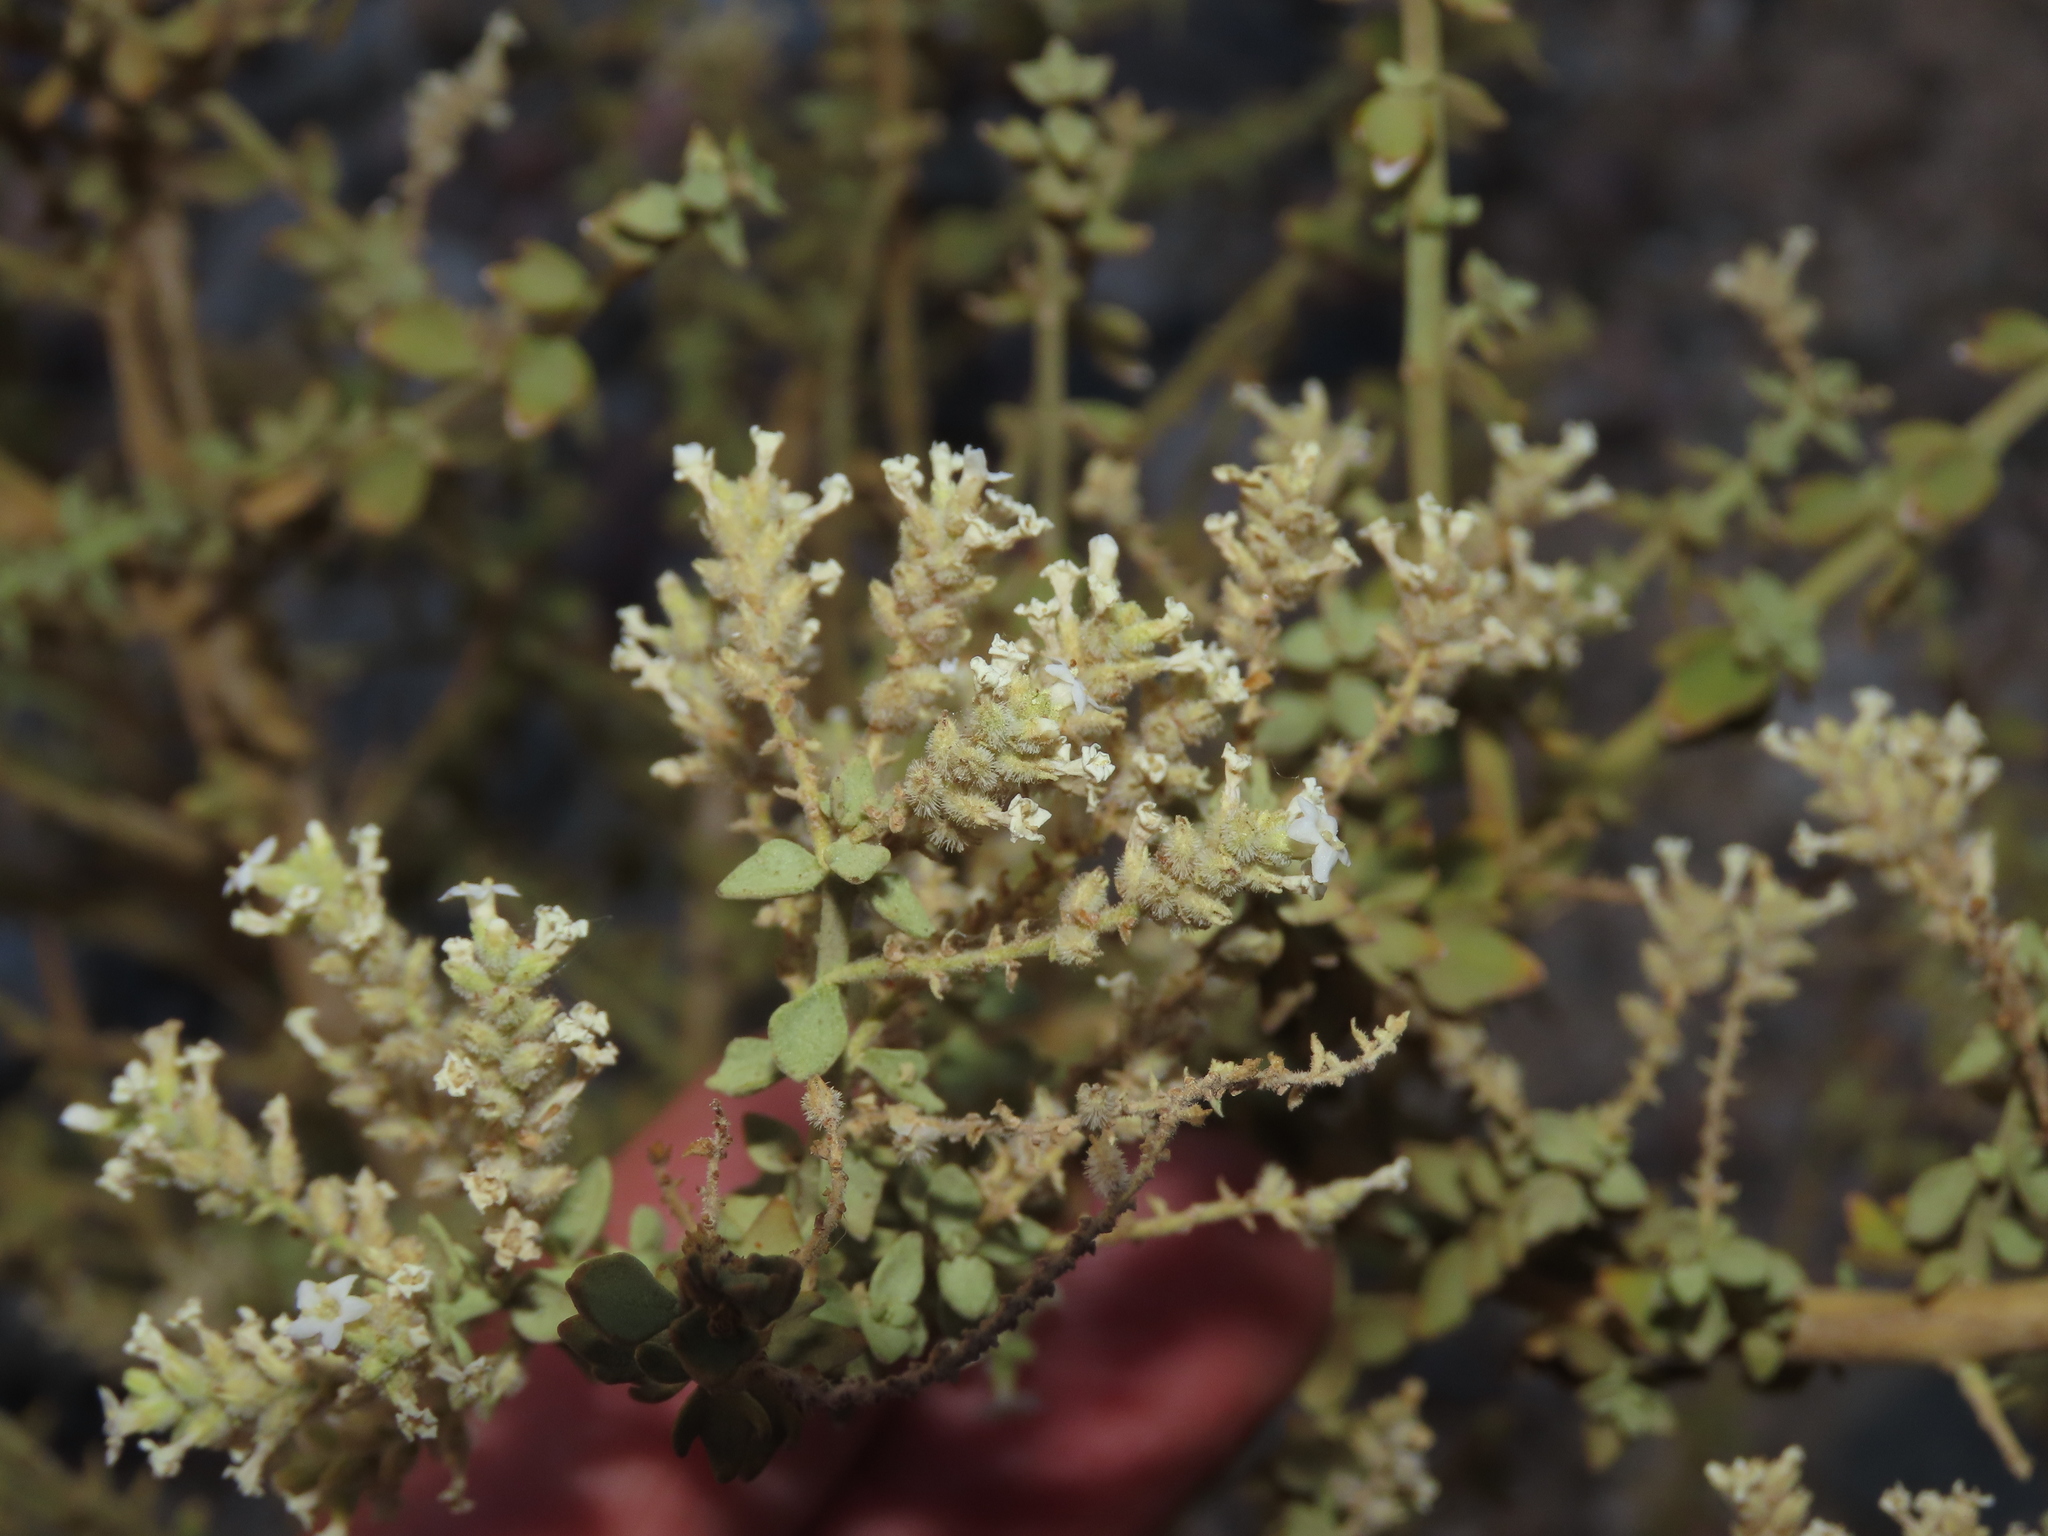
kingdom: Plantae
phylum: Tracheophyta
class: Magnoliopsida
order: Lamiales
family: Verbenaceae
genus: Aloysia
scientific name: Aloysia trifida
